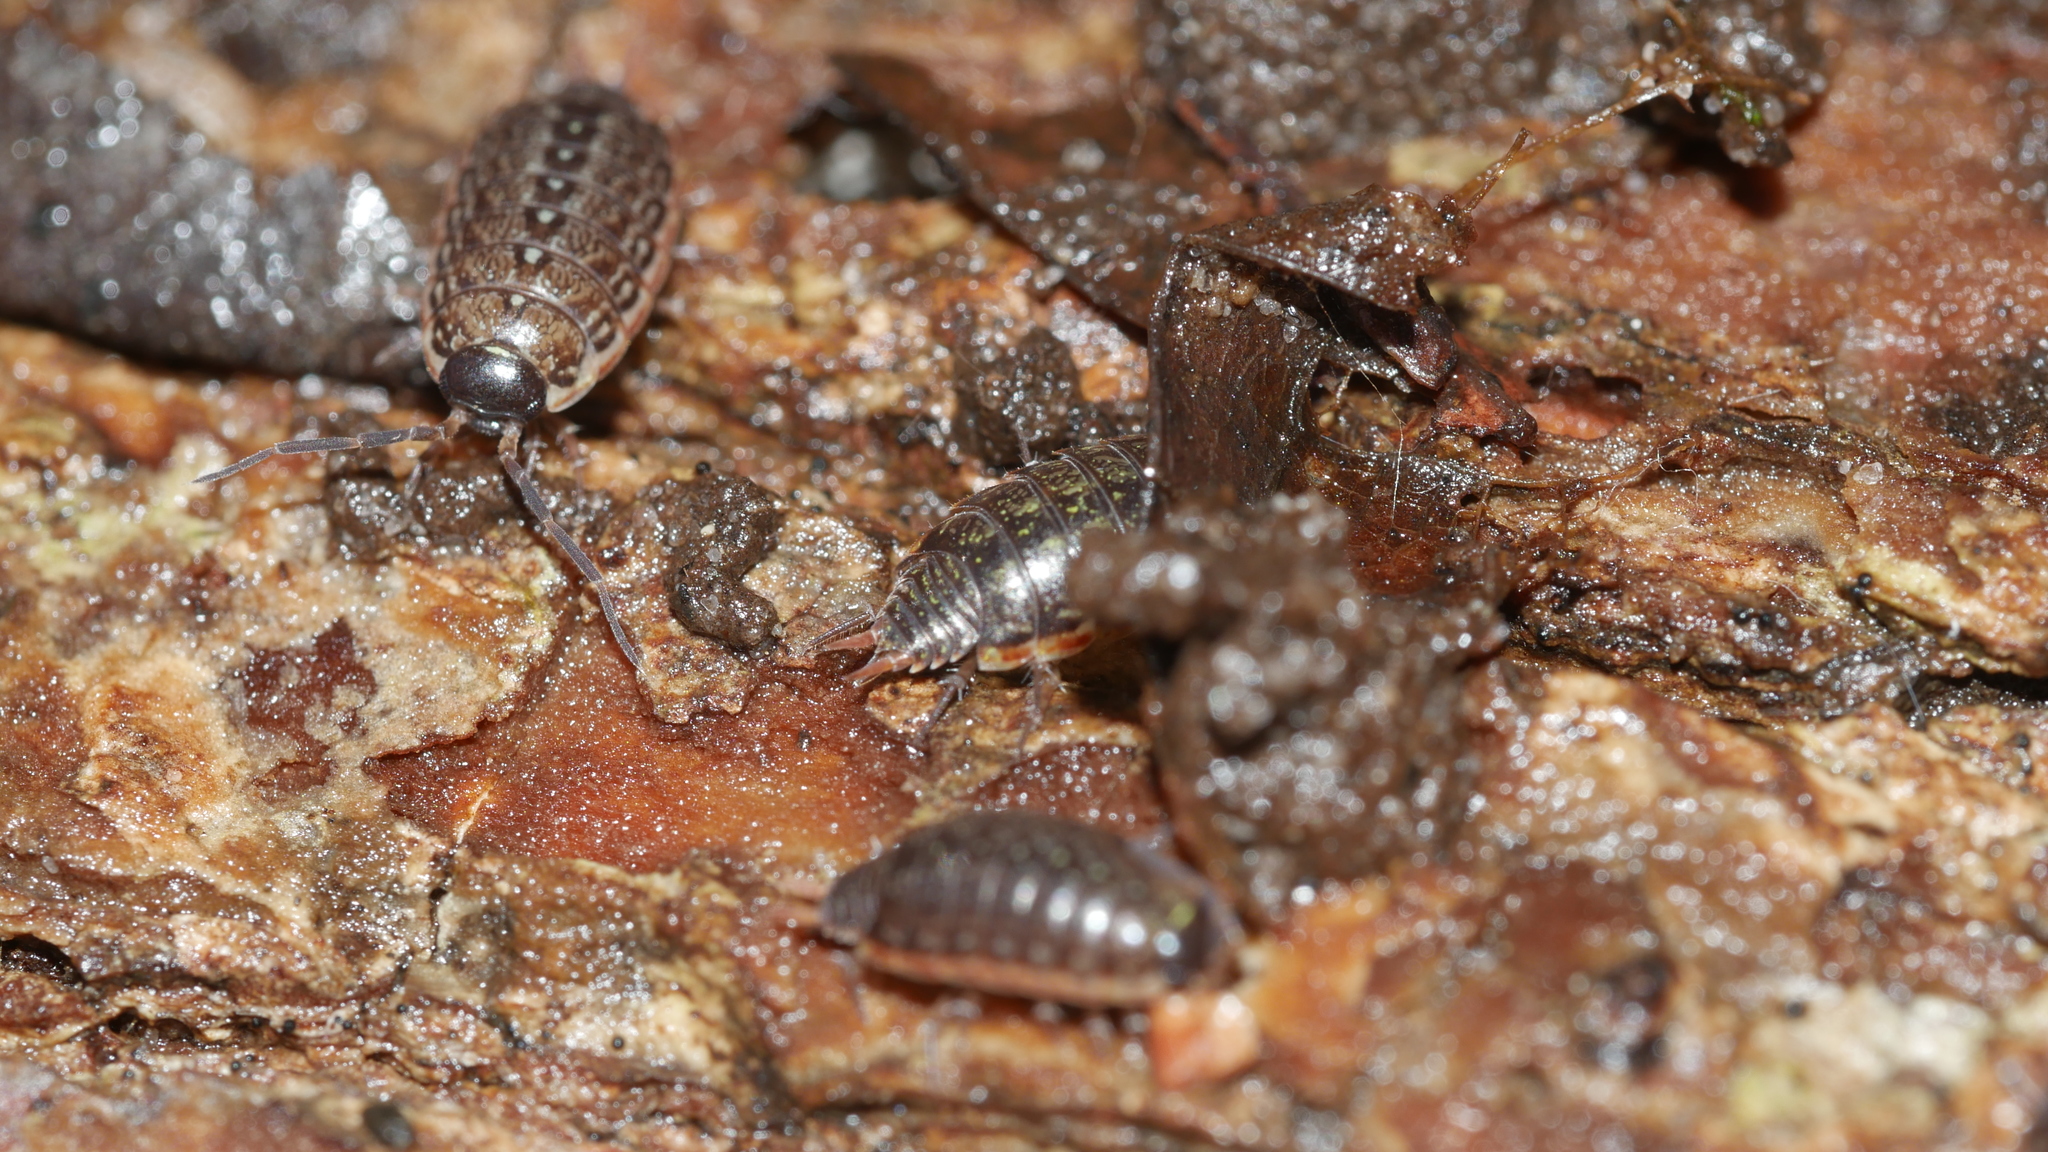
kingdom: Animalia
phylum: Arthropoda
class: Malacostraca
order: Isopoda
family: Philosciidae
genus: Philoscia
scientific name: Philoscia muscorum
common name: Common striped woodlouse
